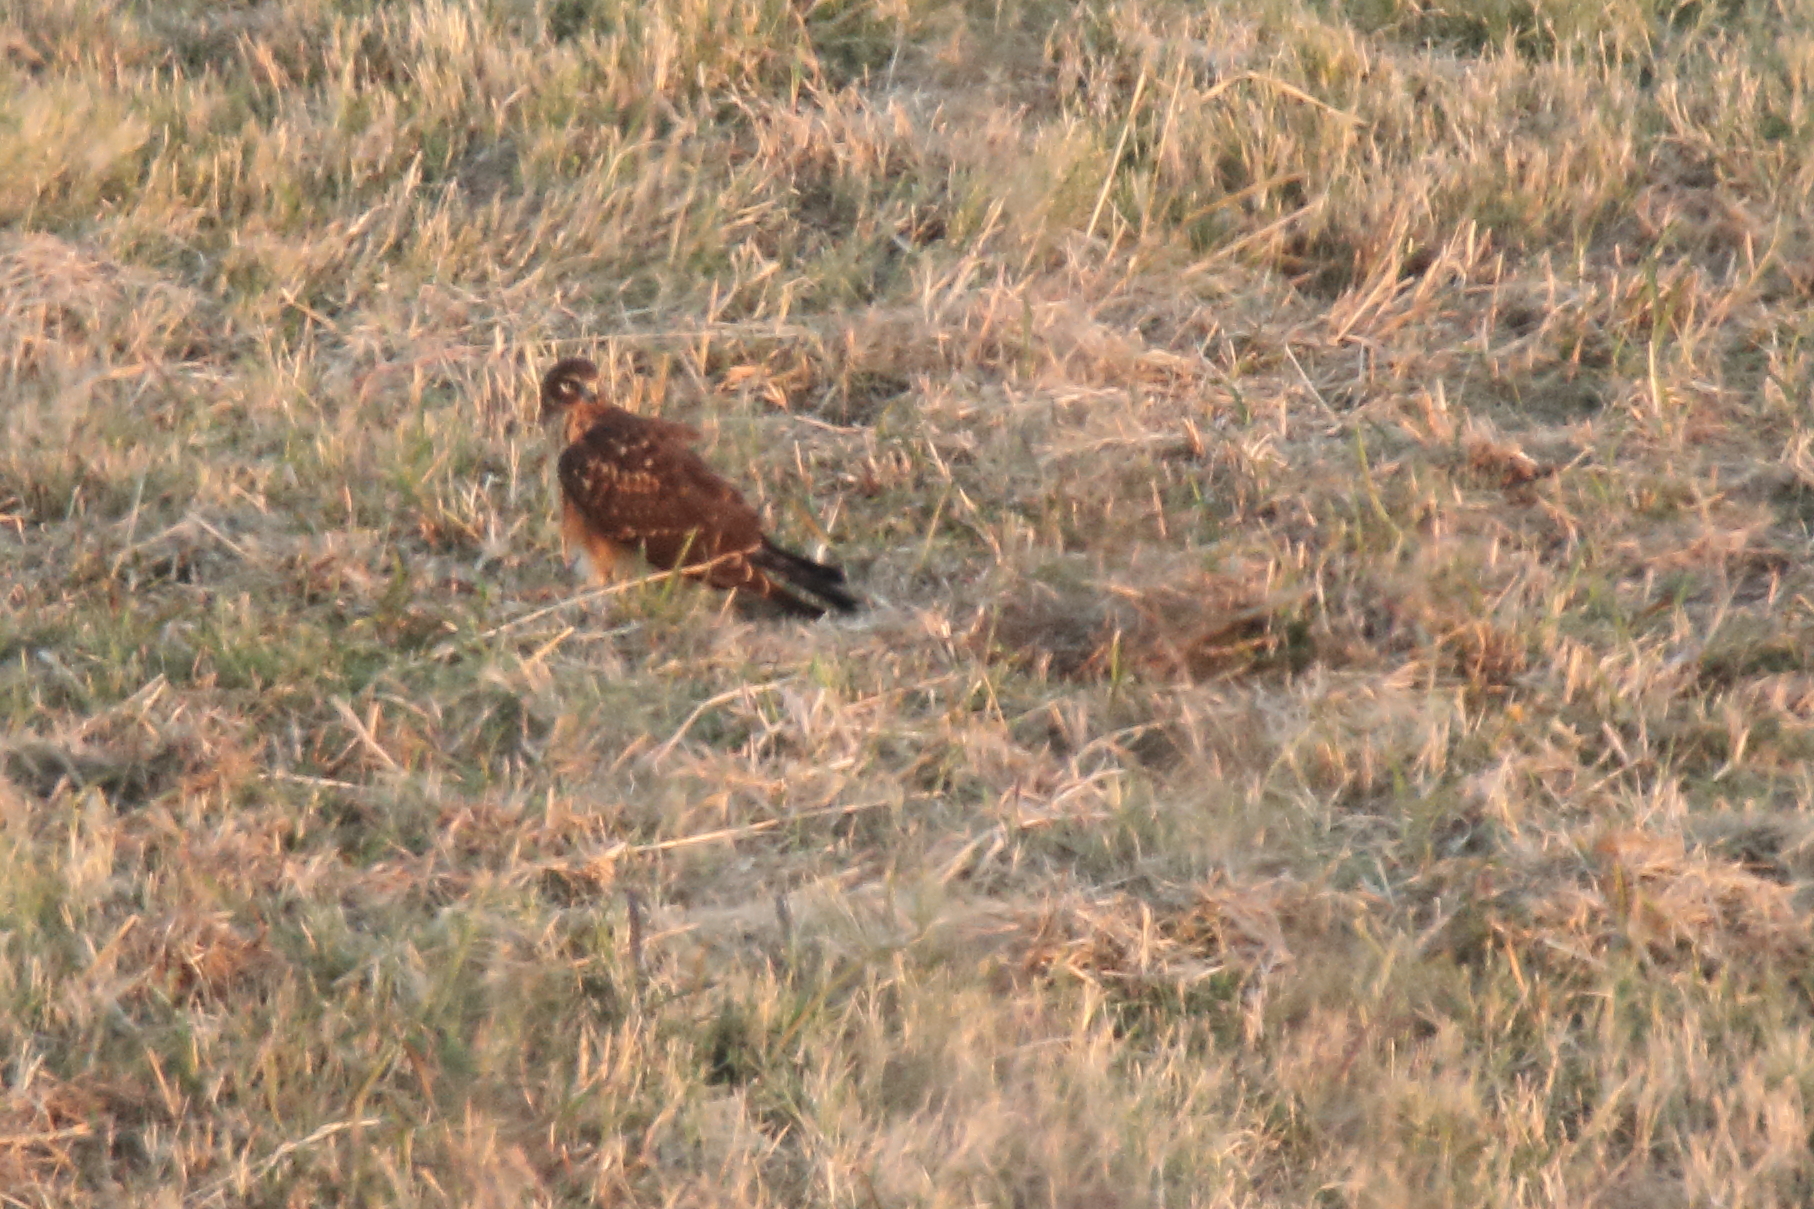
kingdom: Animalia
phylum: Chordata
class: Aves
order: Accipitriformes
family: Accipitridae
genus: Circus
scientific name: Circus cyaneus
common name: Hen harrier
